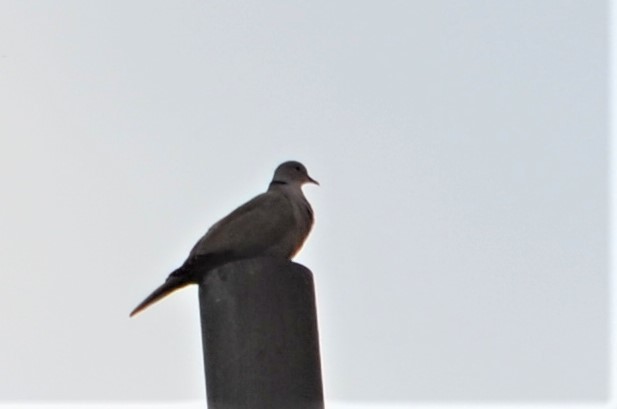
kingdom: Animalia
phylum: Chordata
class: Aves
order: Columbiformes
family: Columbidae
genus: Streptopelia
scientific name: Streptopelia decaocto
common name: Eurasian collared dove
